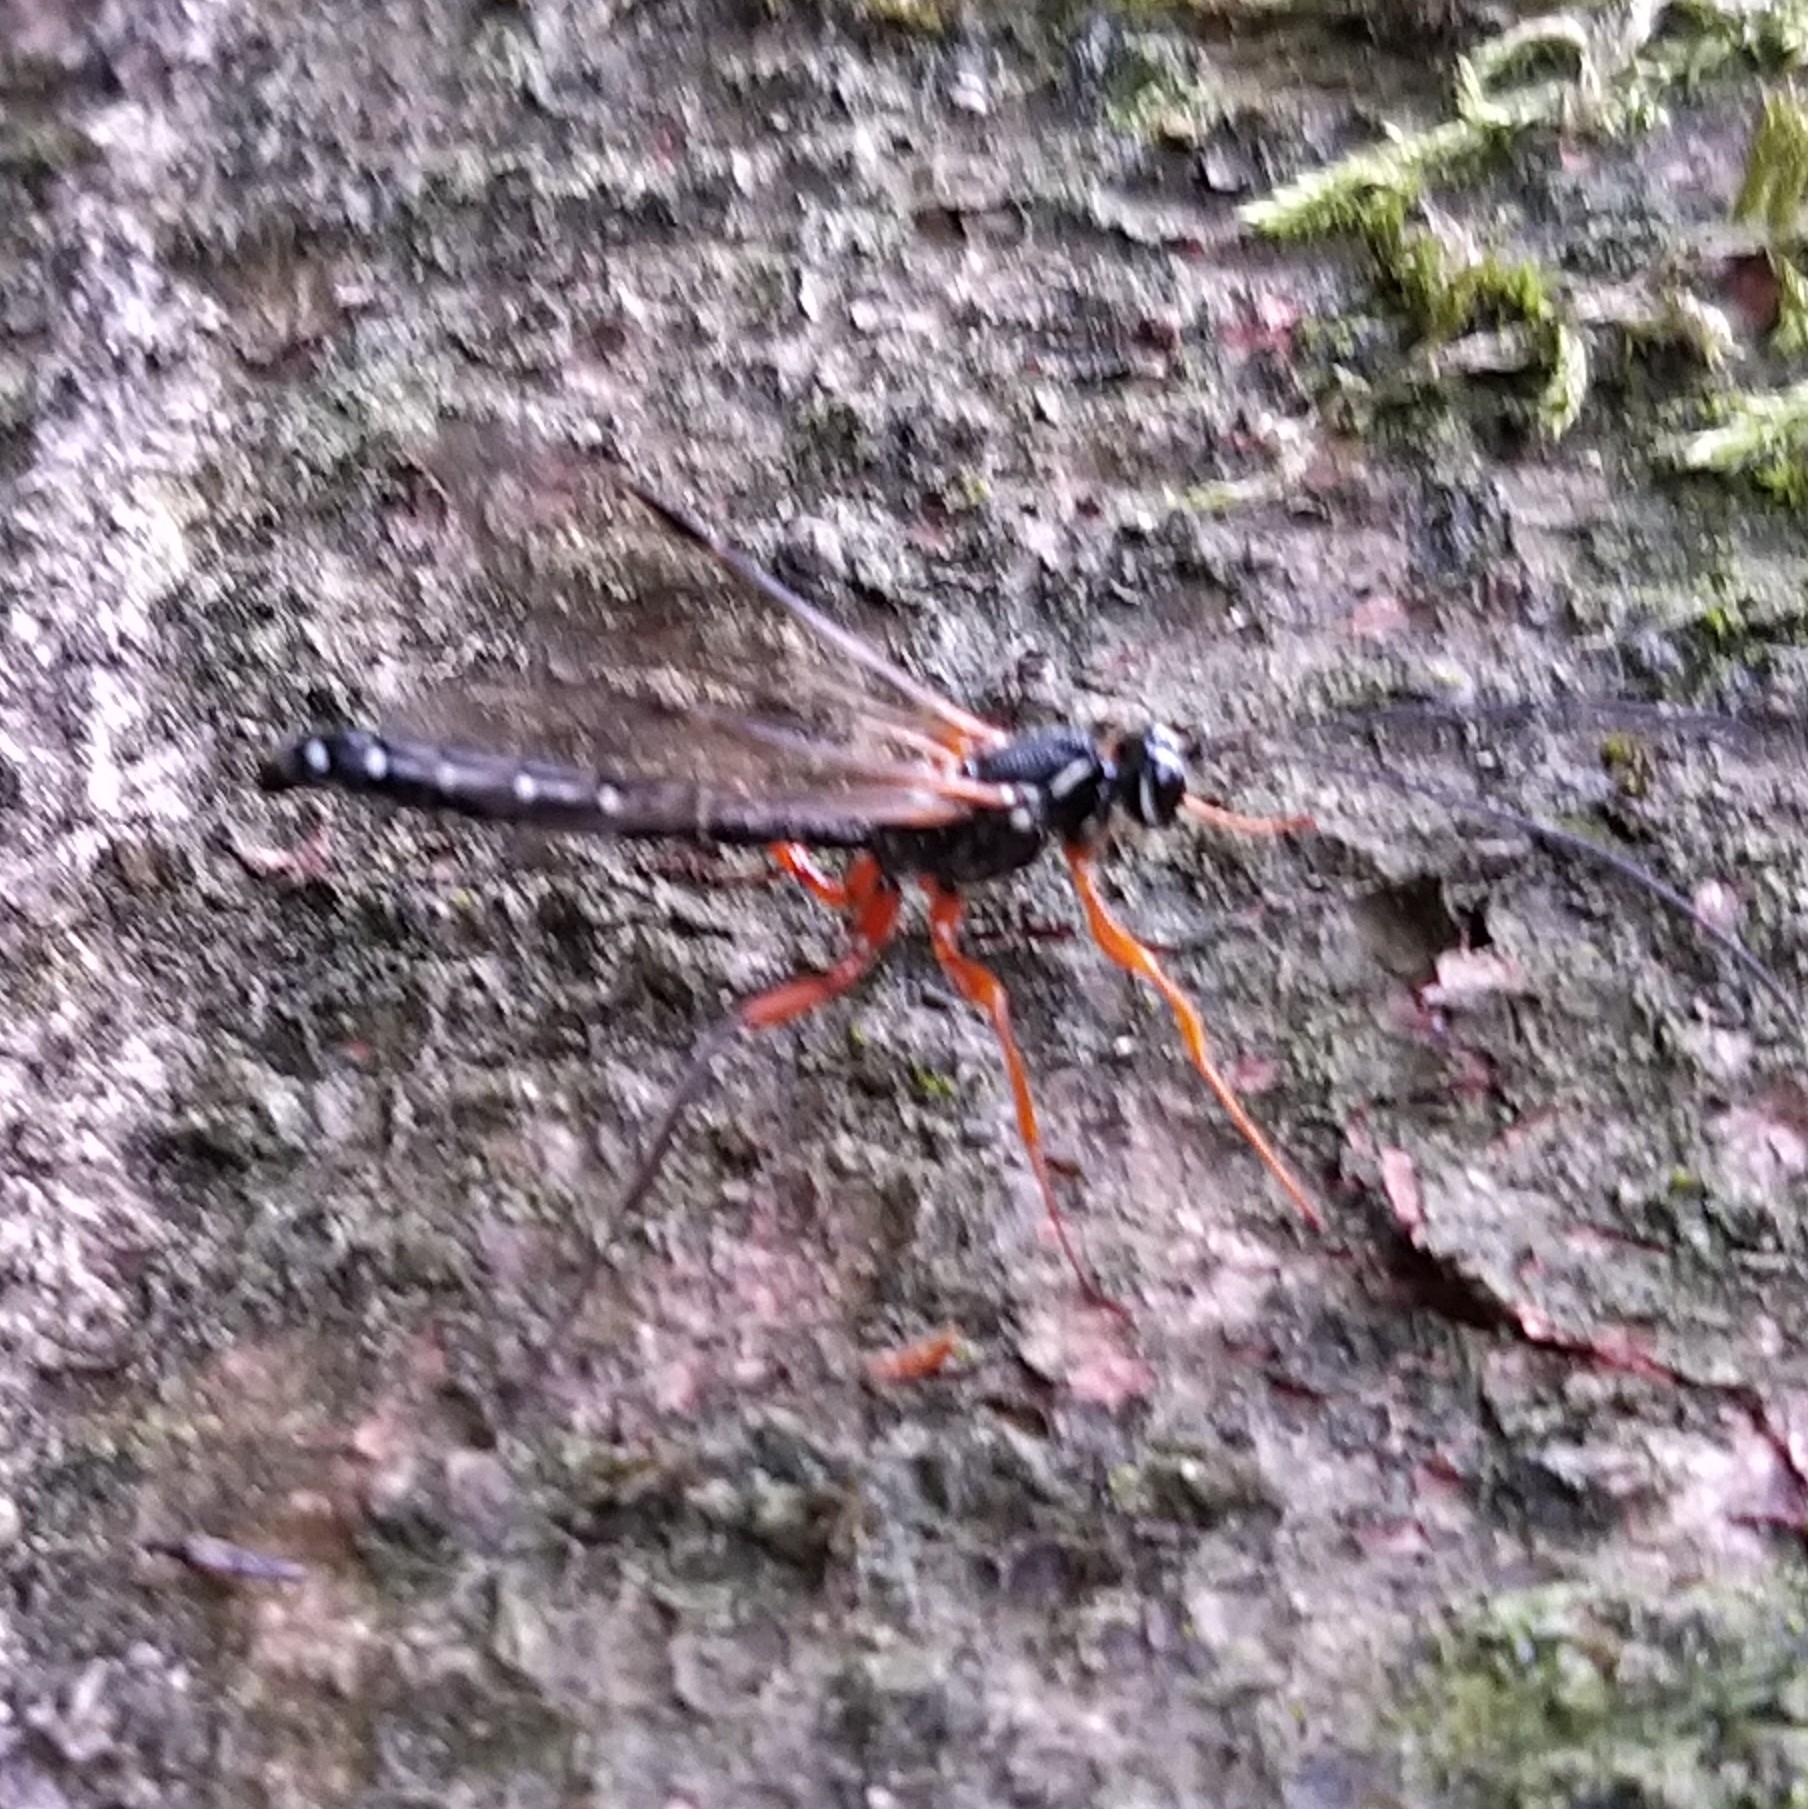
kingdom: Animalia
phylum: Arthropoda
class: Insecta
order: Hymenoptera
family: Ichneumonidae
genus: Rhyssa
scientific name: Rhyssa persuasoria
